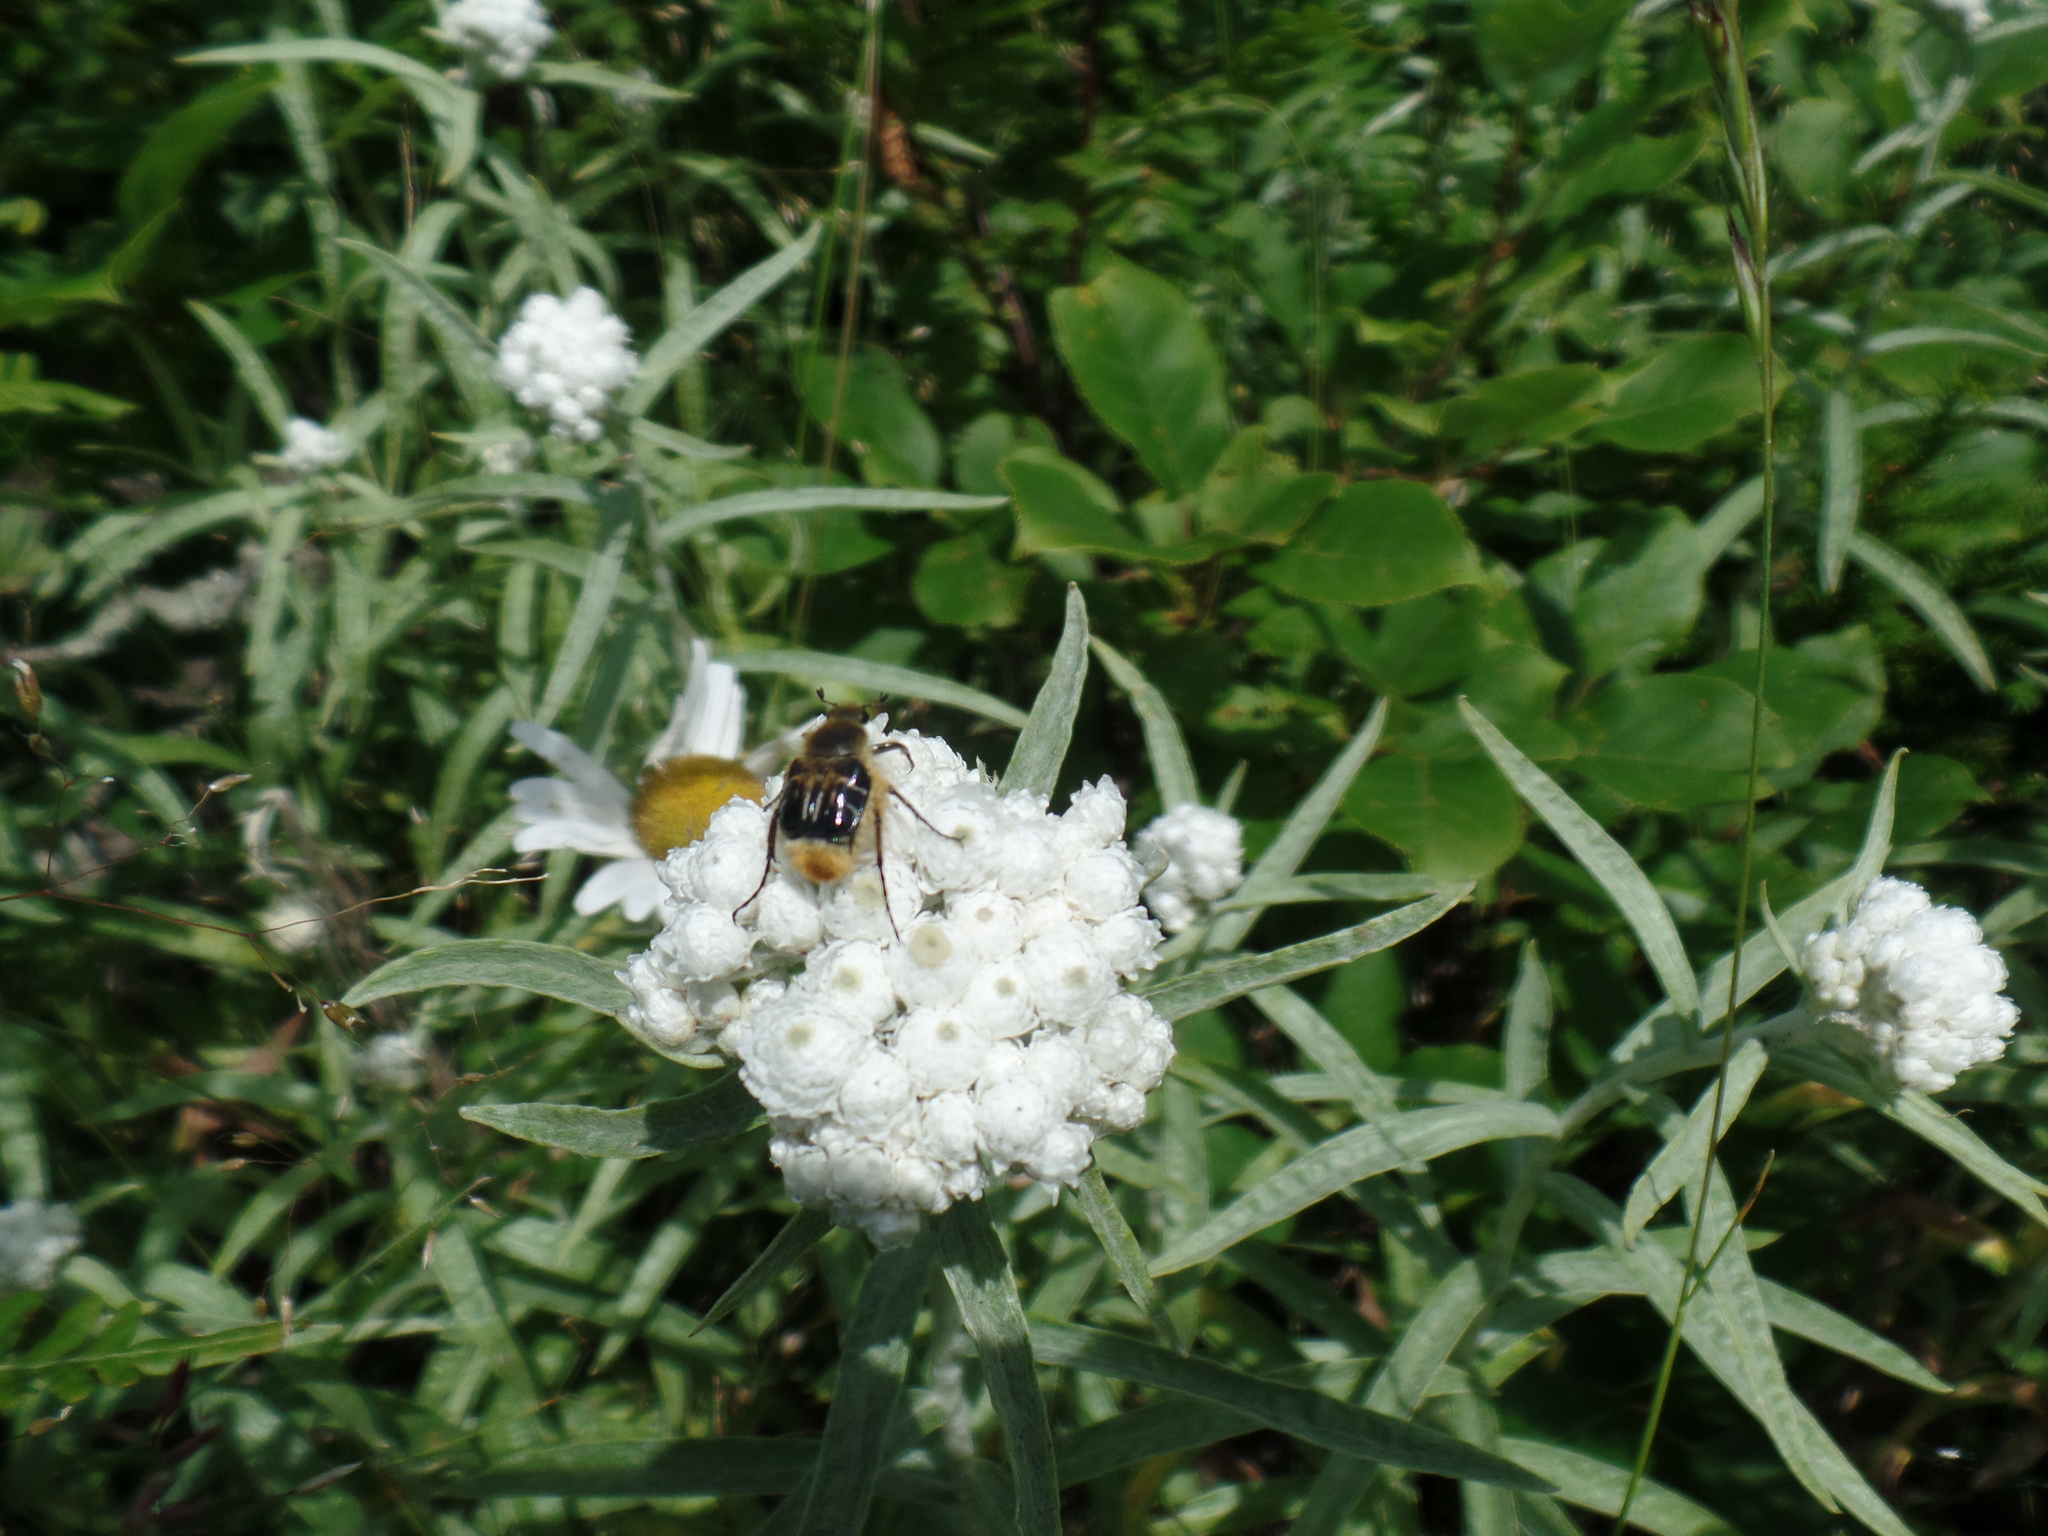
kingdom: Animalia
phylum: Arthropoda
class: Insecta
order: Coleoptera
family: Scarabaeidae
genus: Trichiotinus
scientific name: Trichiotinus assimilis
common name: Bee-mimic beetle
